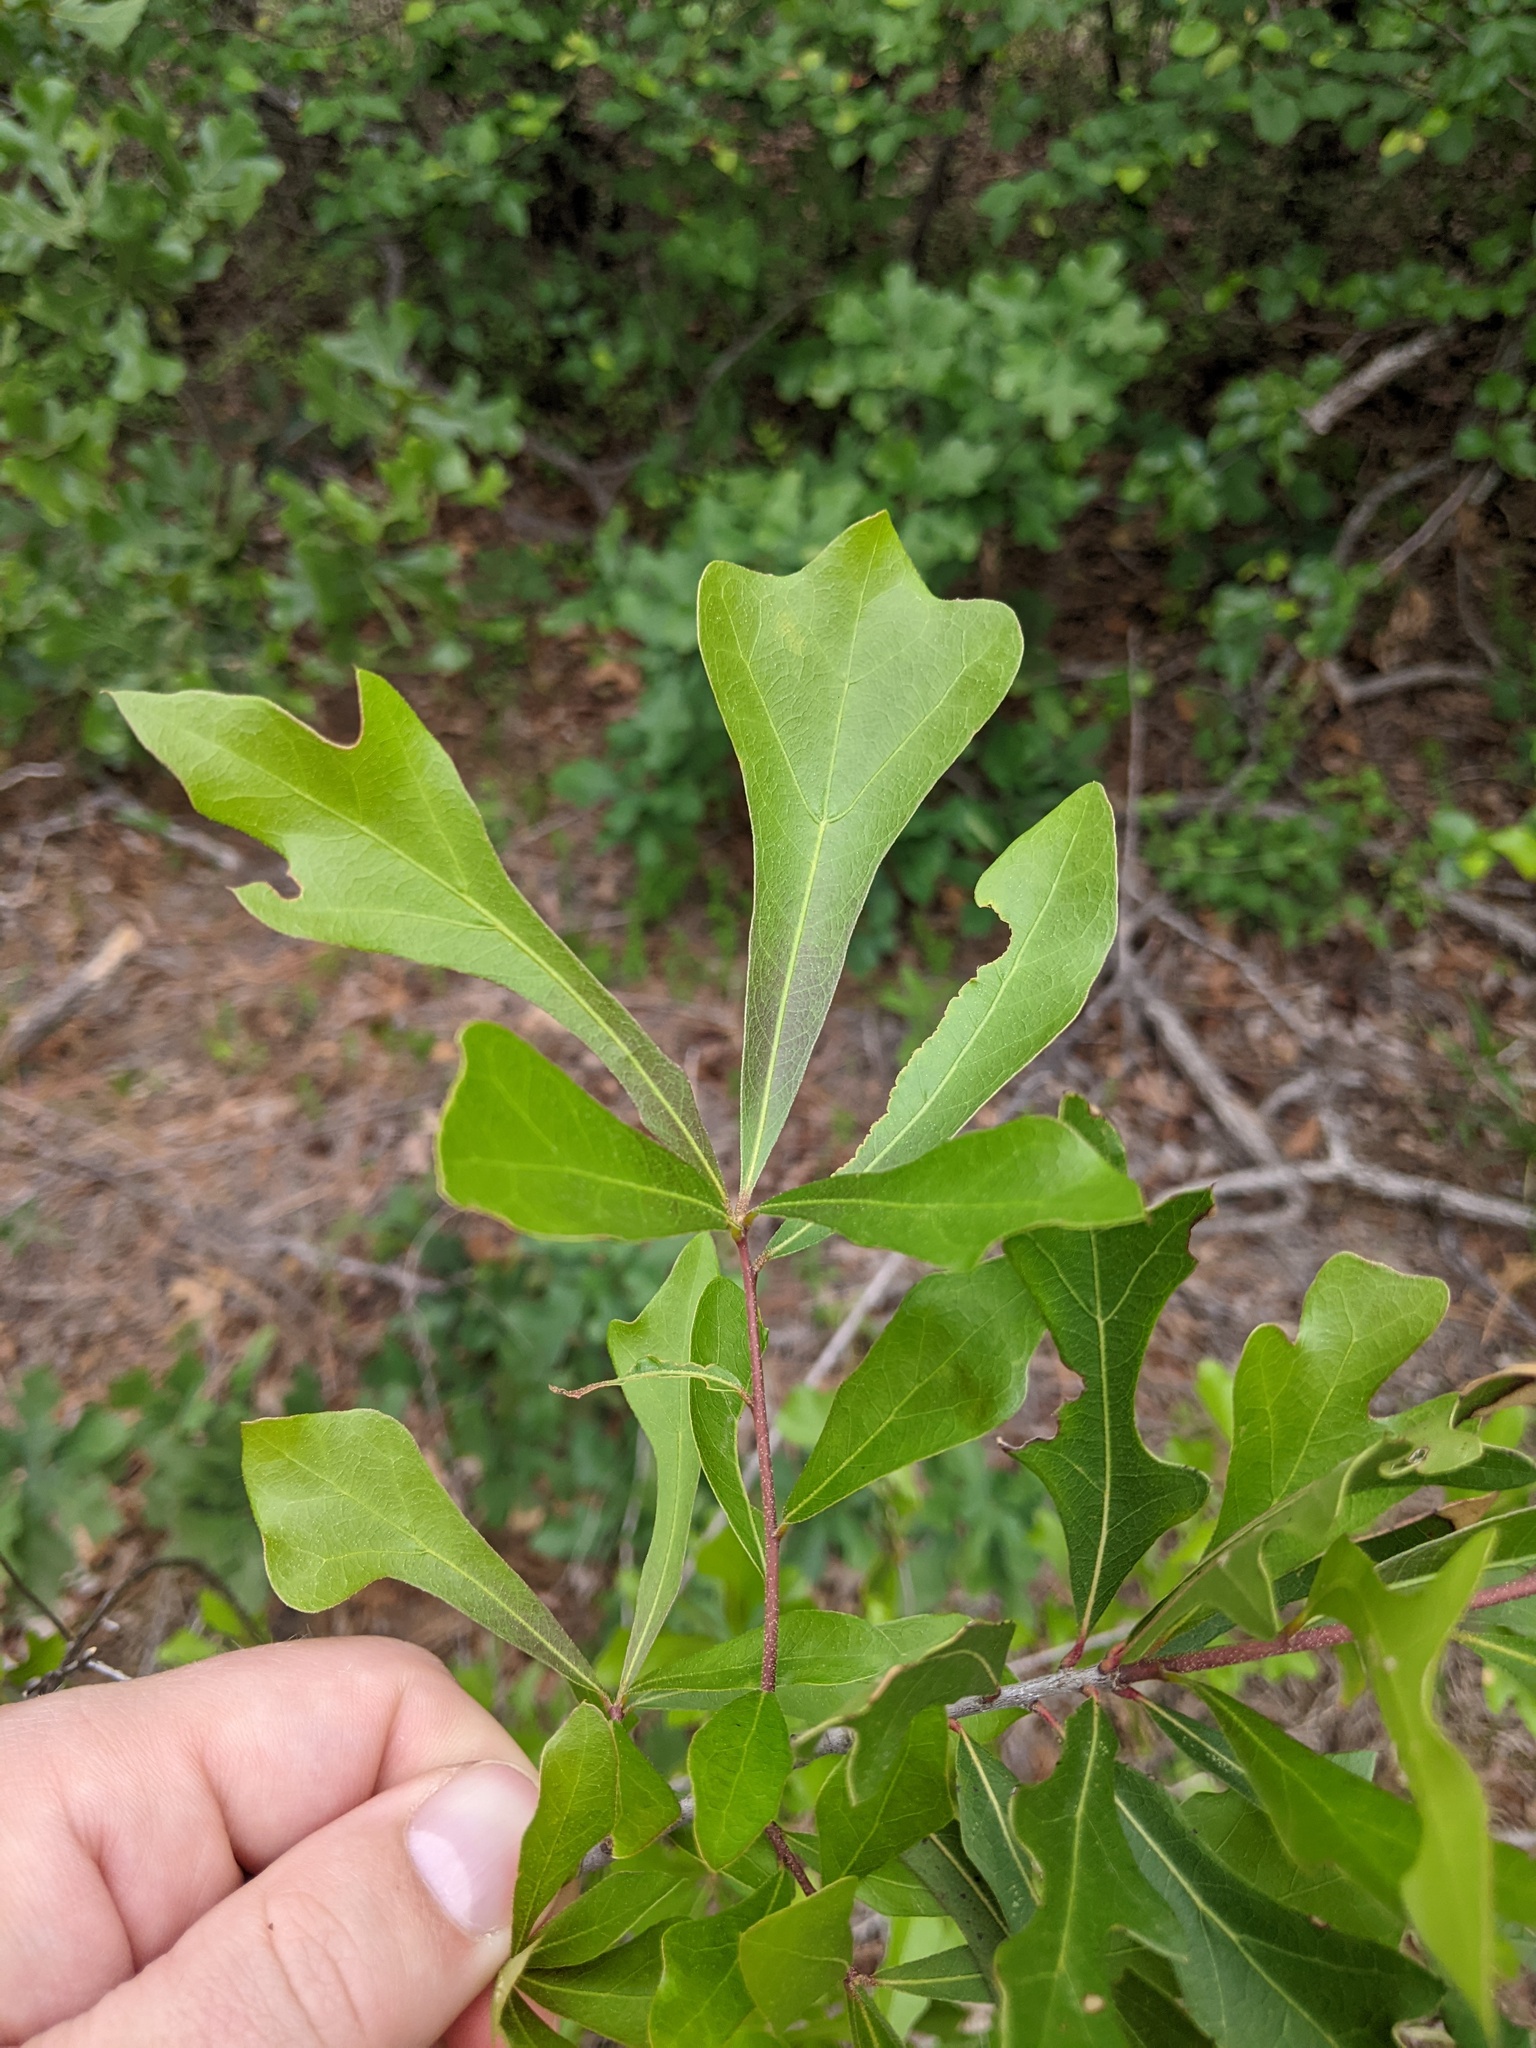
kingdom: Plantae
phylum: Tracheophyta
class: Magnoliopsida
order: Fagales
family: Fagaceae
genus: Quercus
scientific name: Quercus nigra
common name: Water oak
